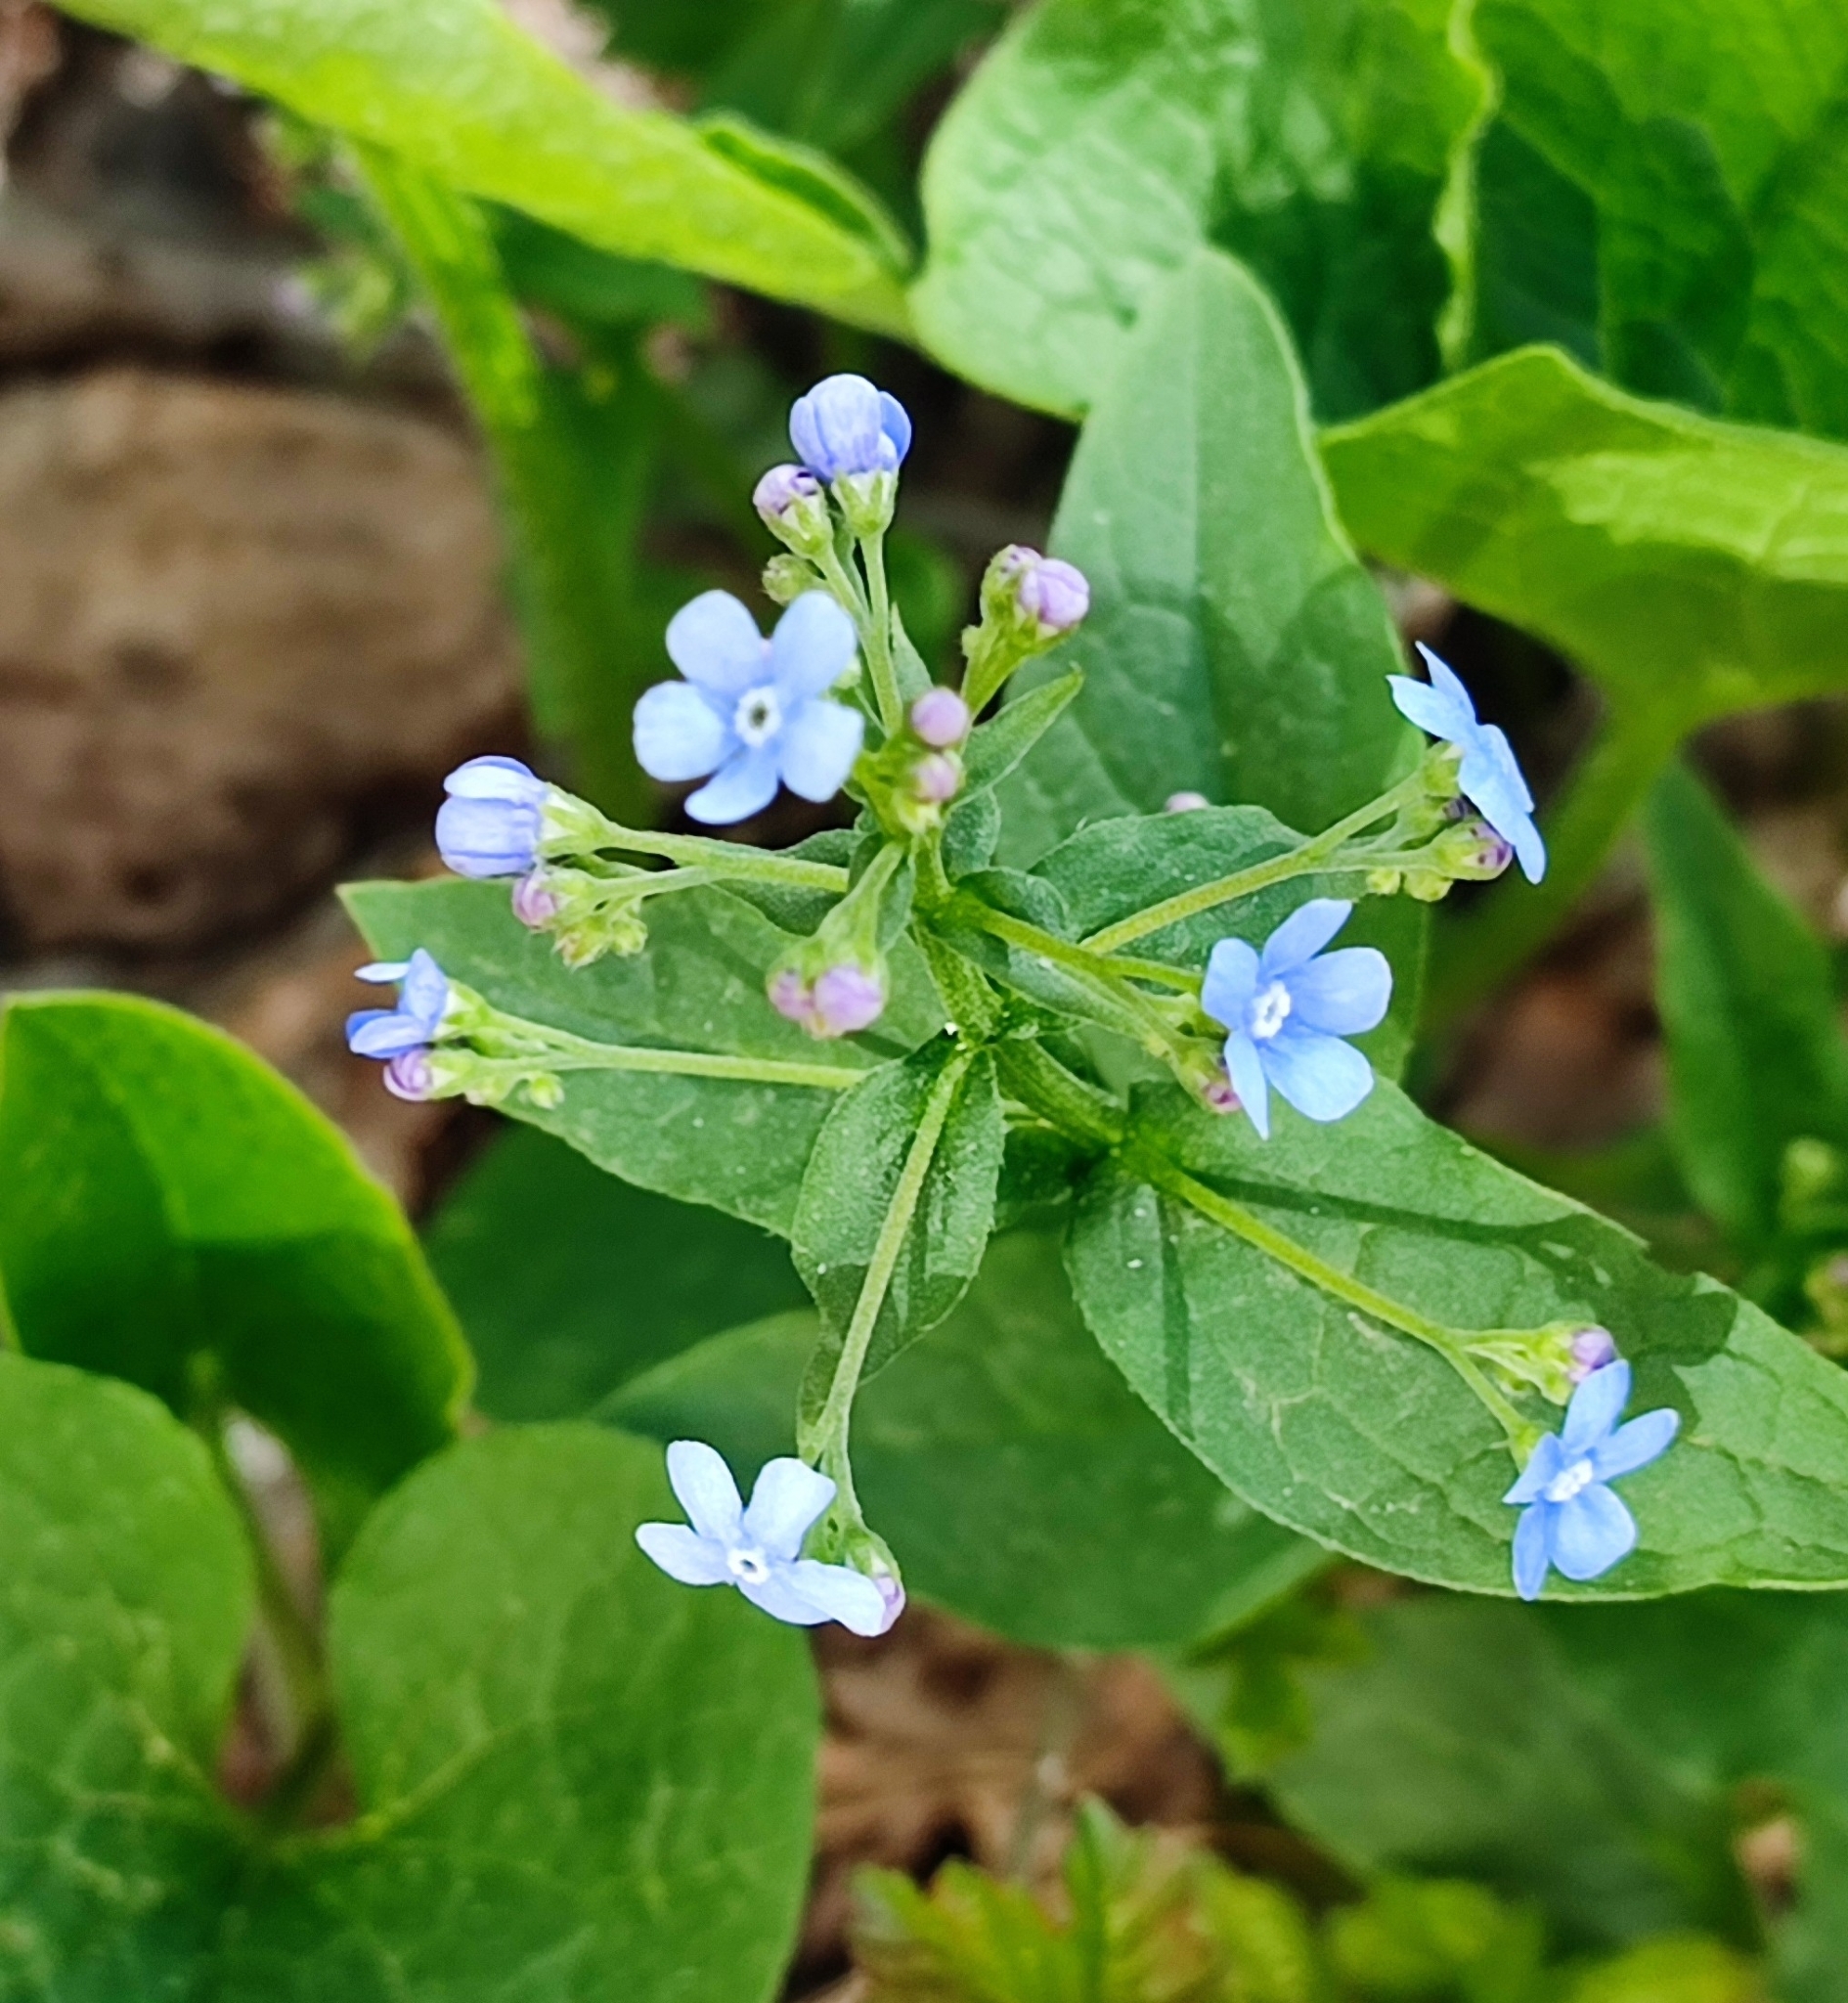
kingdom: Plantae
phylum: Tracheophyta
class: Magnoliopsida
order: Boraginales
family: Boraginaceae
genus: Brunnera
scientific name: Brunnera sibirica
